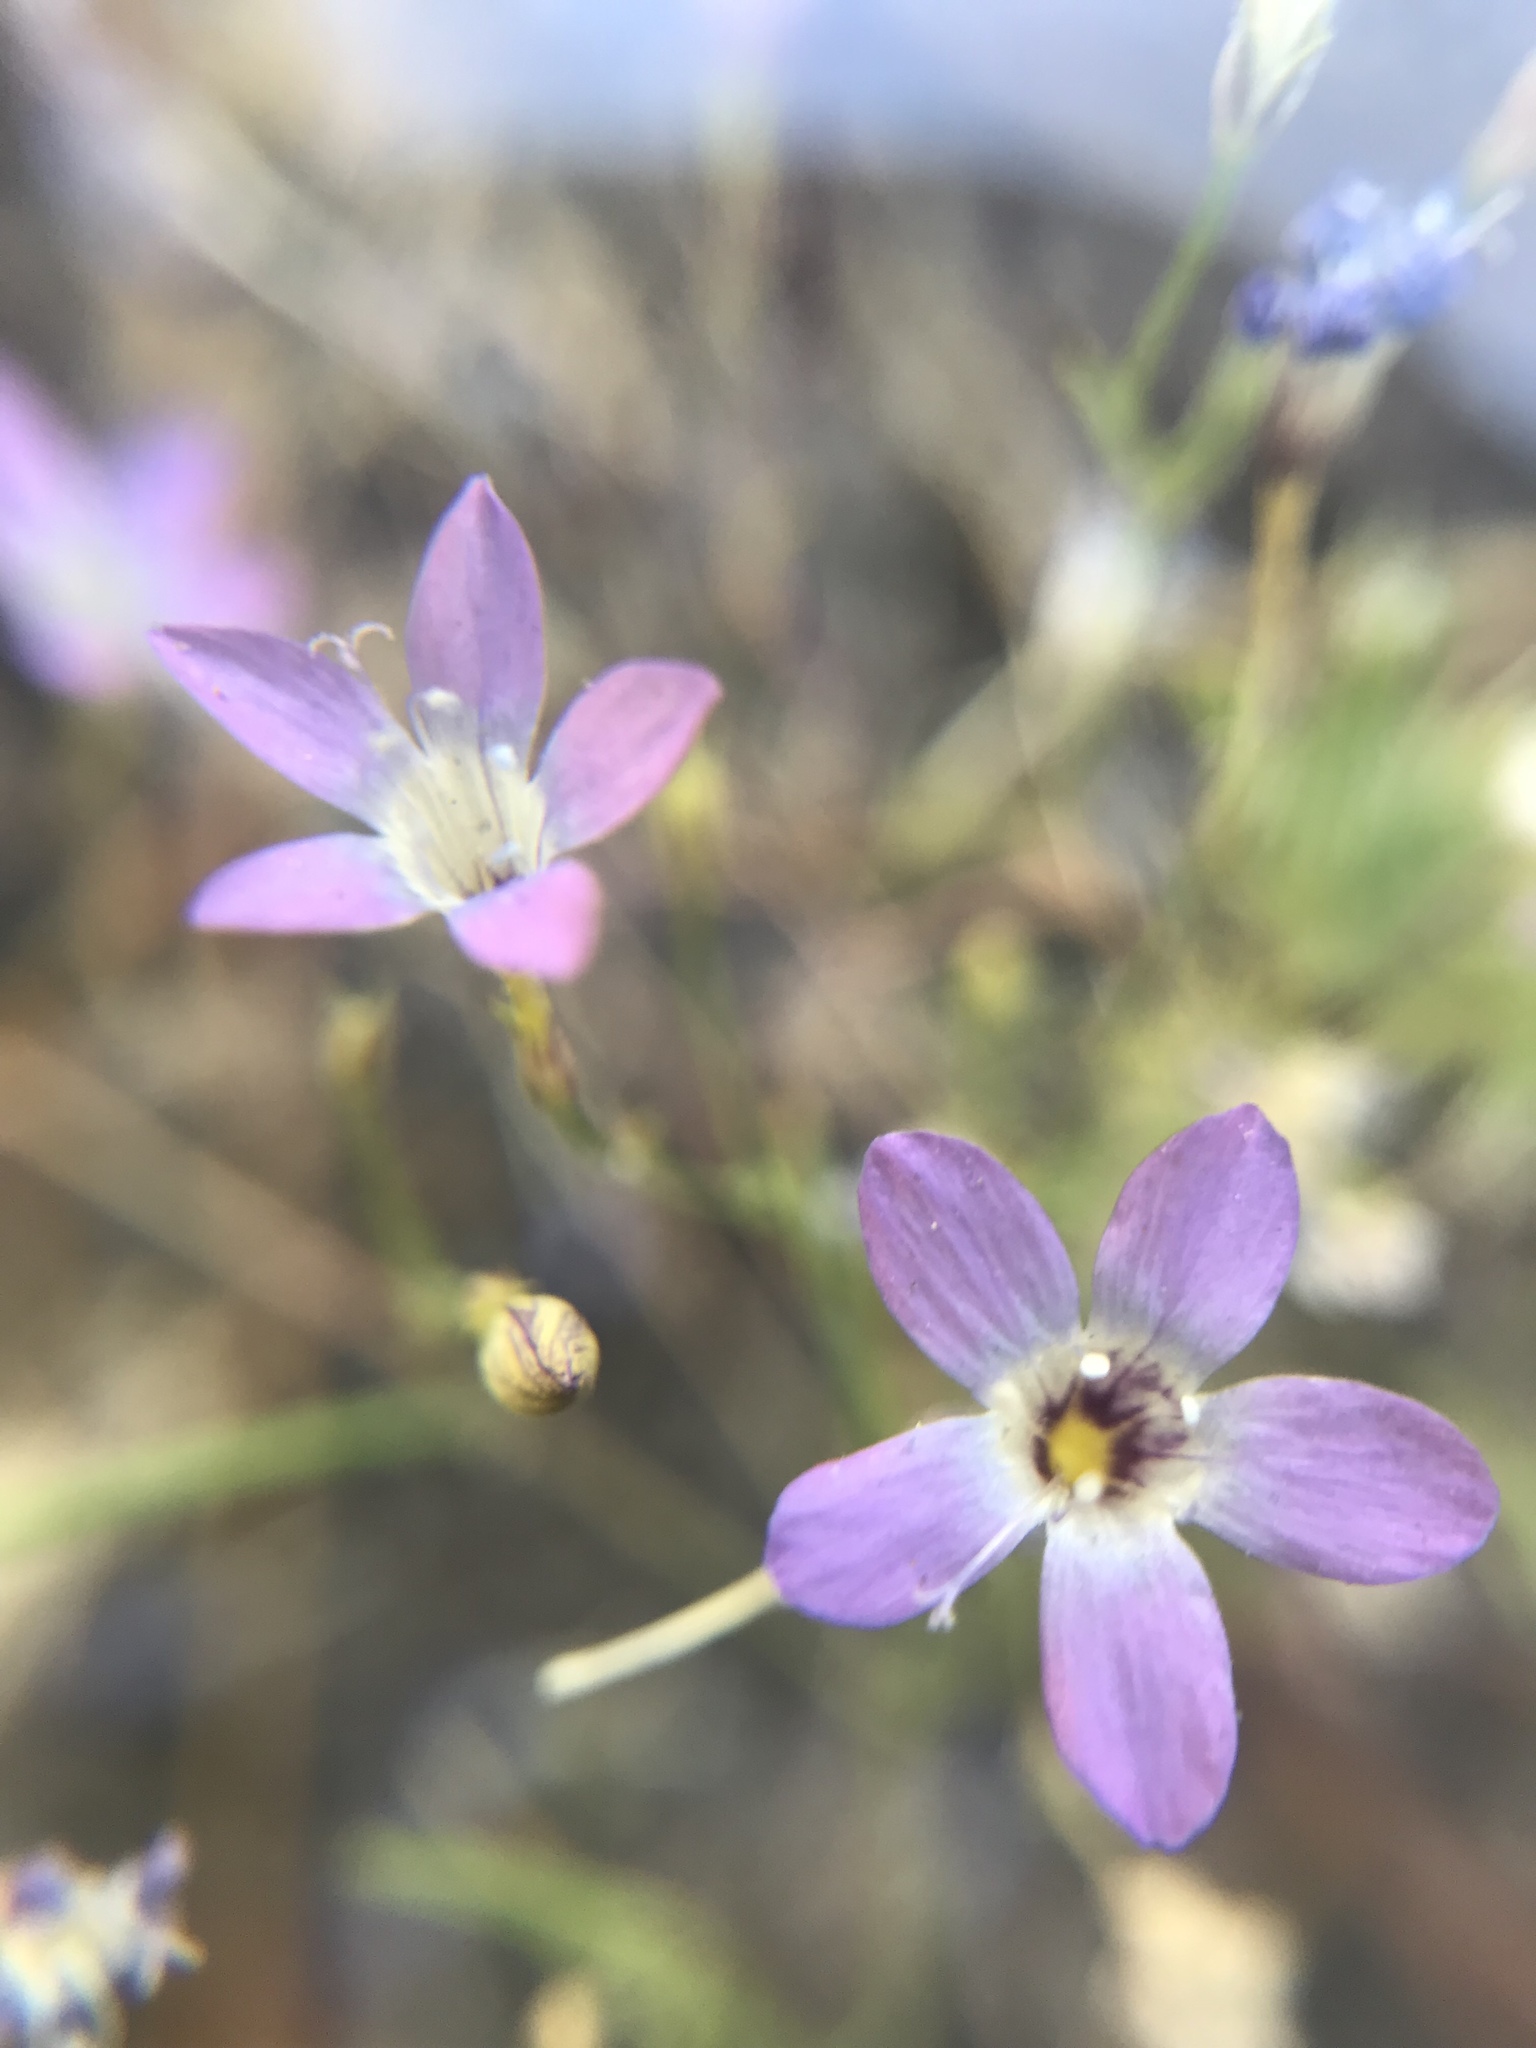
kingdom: Plantae
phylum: Tracheophyta
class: Magnoliopsida
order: Ericales
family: Polemoniaceae
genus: Navarretia
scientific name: Navarretia leptalea
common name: Bridges' pincushionplant
